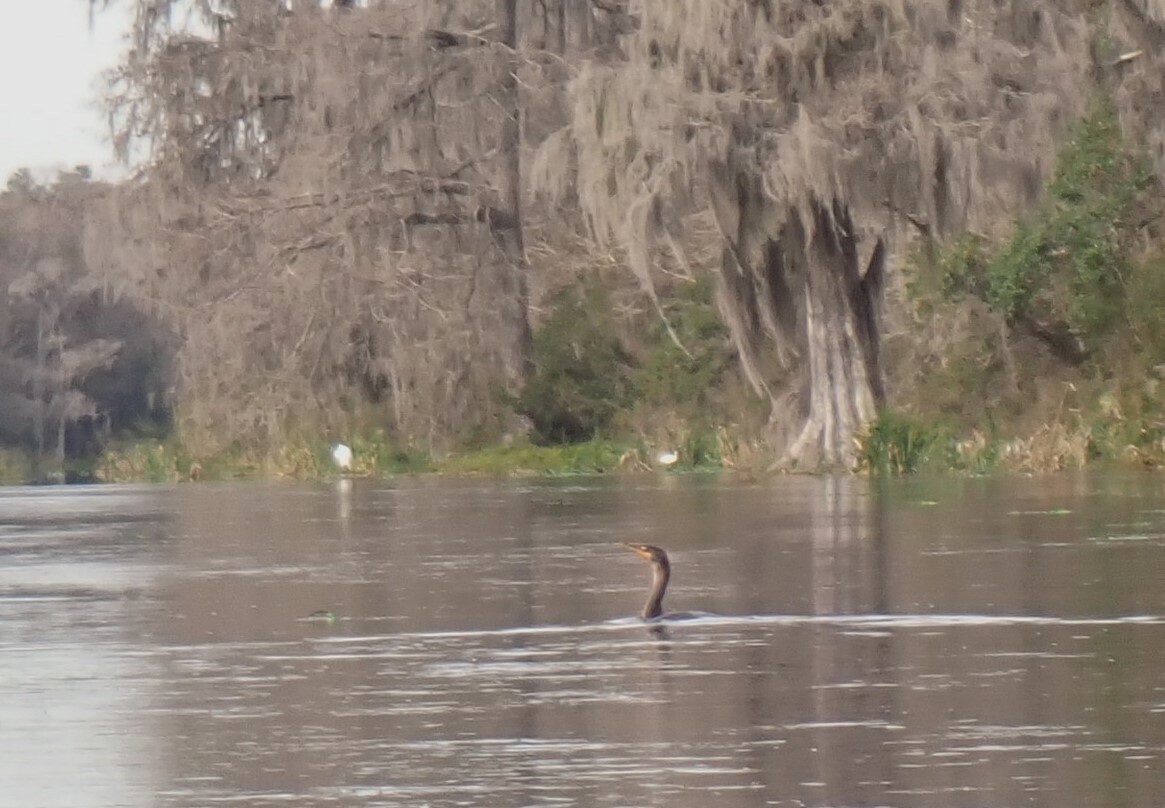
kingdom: Animalia
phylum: Chordata
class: Aves
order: Suliformes
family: Phalacrocoracidae
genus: Phalacrocorax
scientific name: Phalacrocorax auritus
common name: Double-crested cormorant
